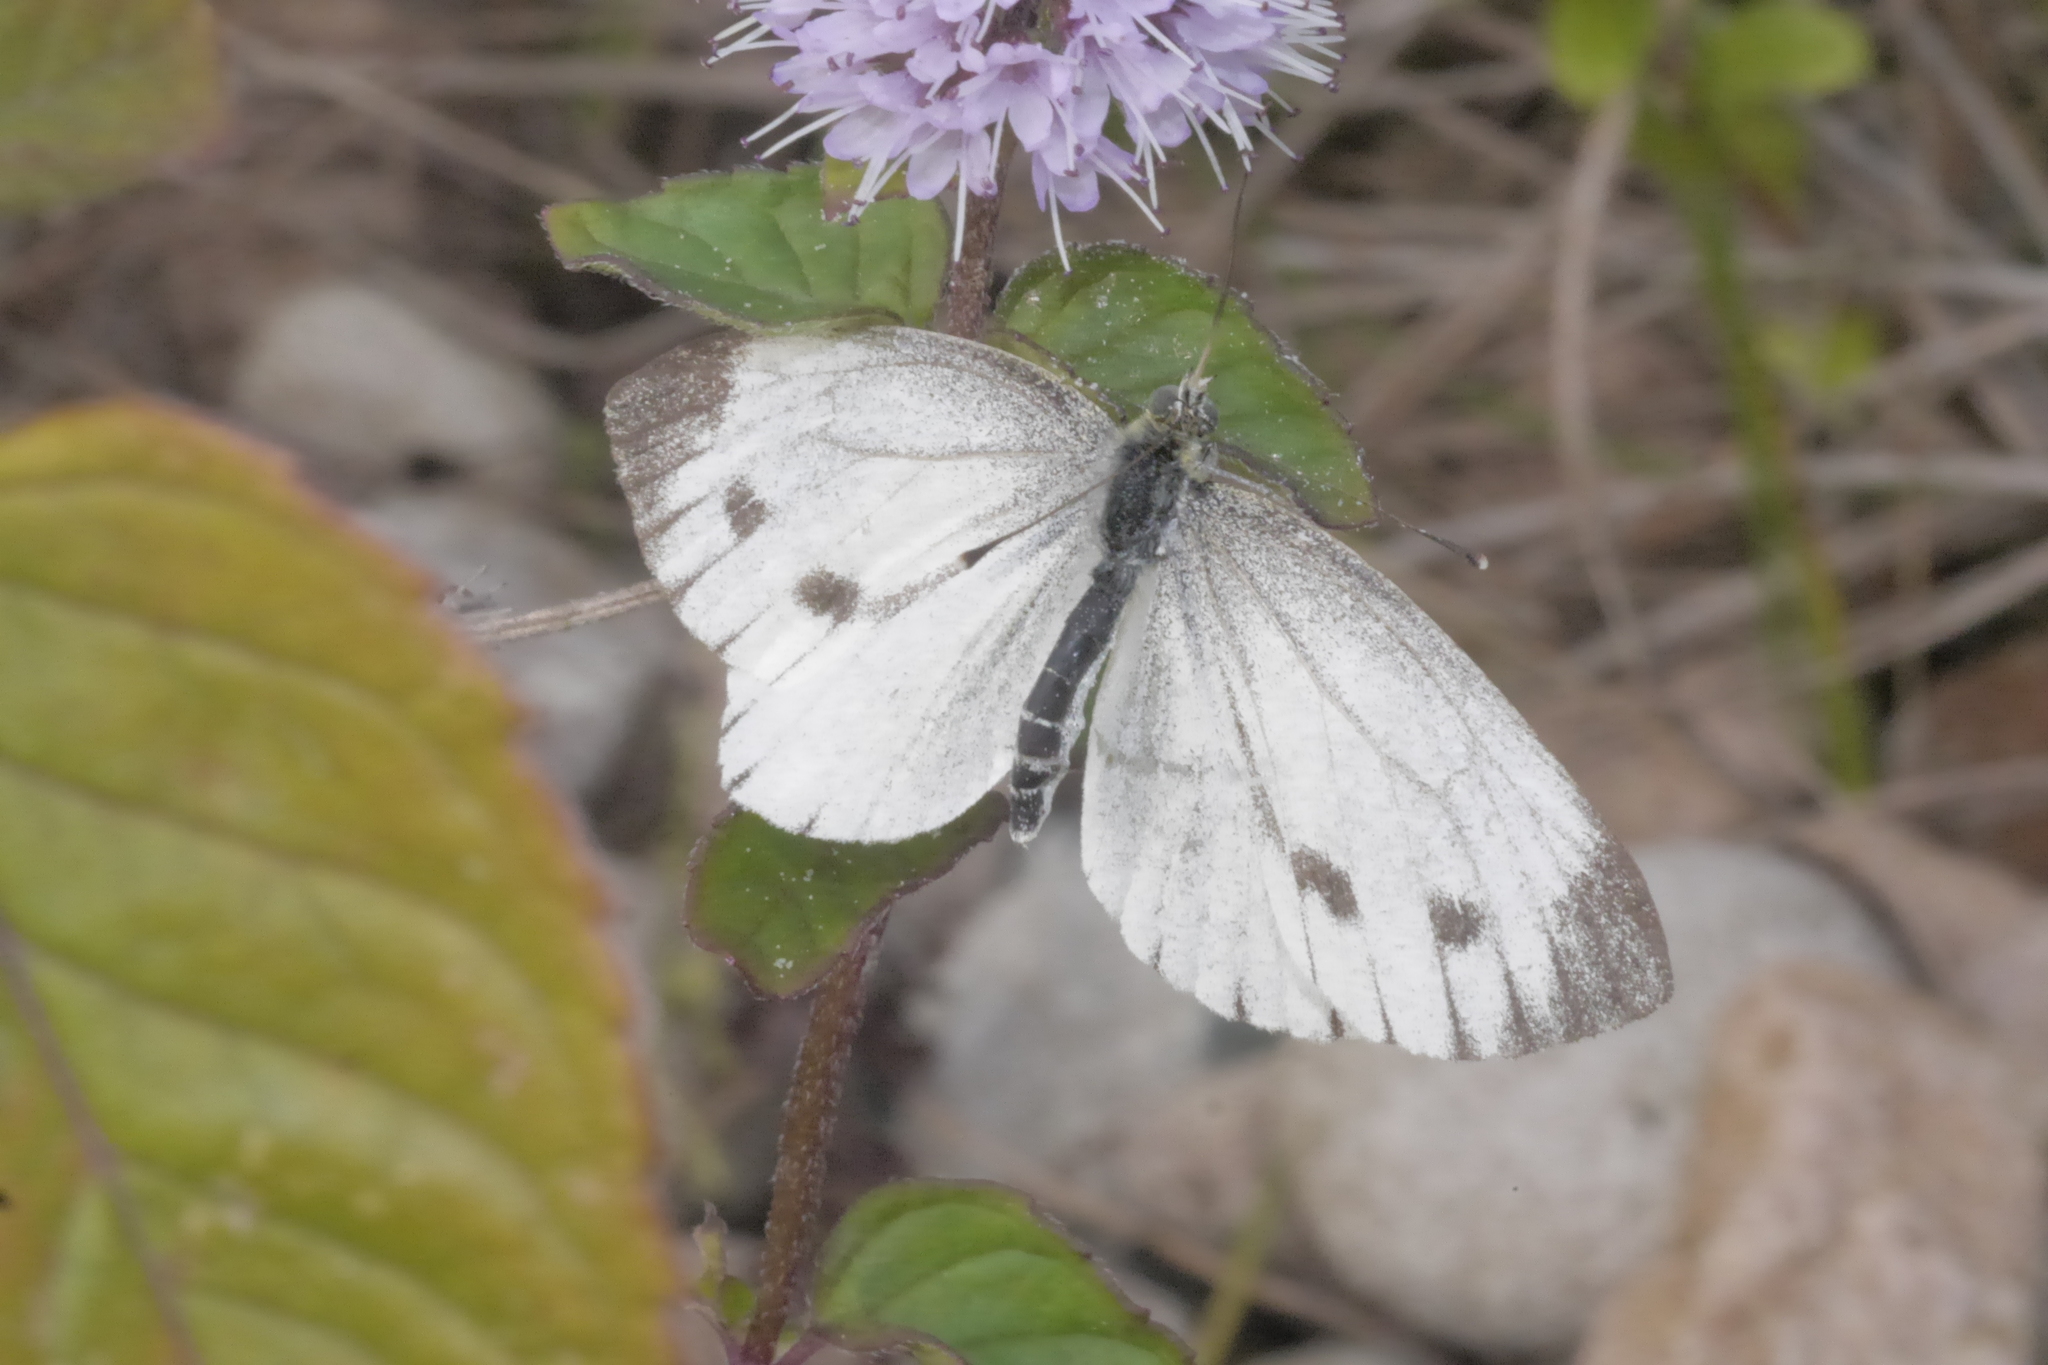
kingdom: Animalia
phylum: Arthropoda
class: Insecta
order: Lepidoptera
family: Pieridae
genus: Pieris
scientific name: Pieris napi
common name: Green-veined white
